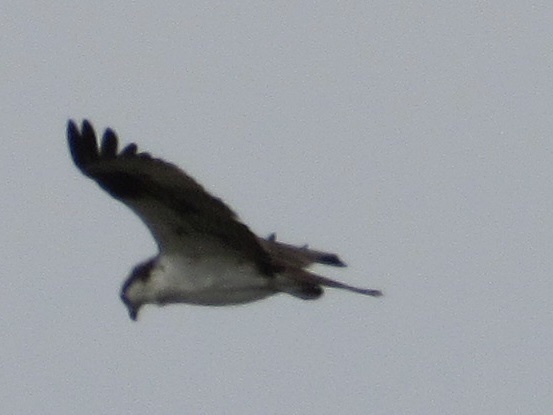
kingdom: Animalia
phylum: Chordata
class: Aves
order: Accipitriformes
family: Pandionidae
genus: Pandion
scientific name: Pandion haliaetus
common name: Osprey
